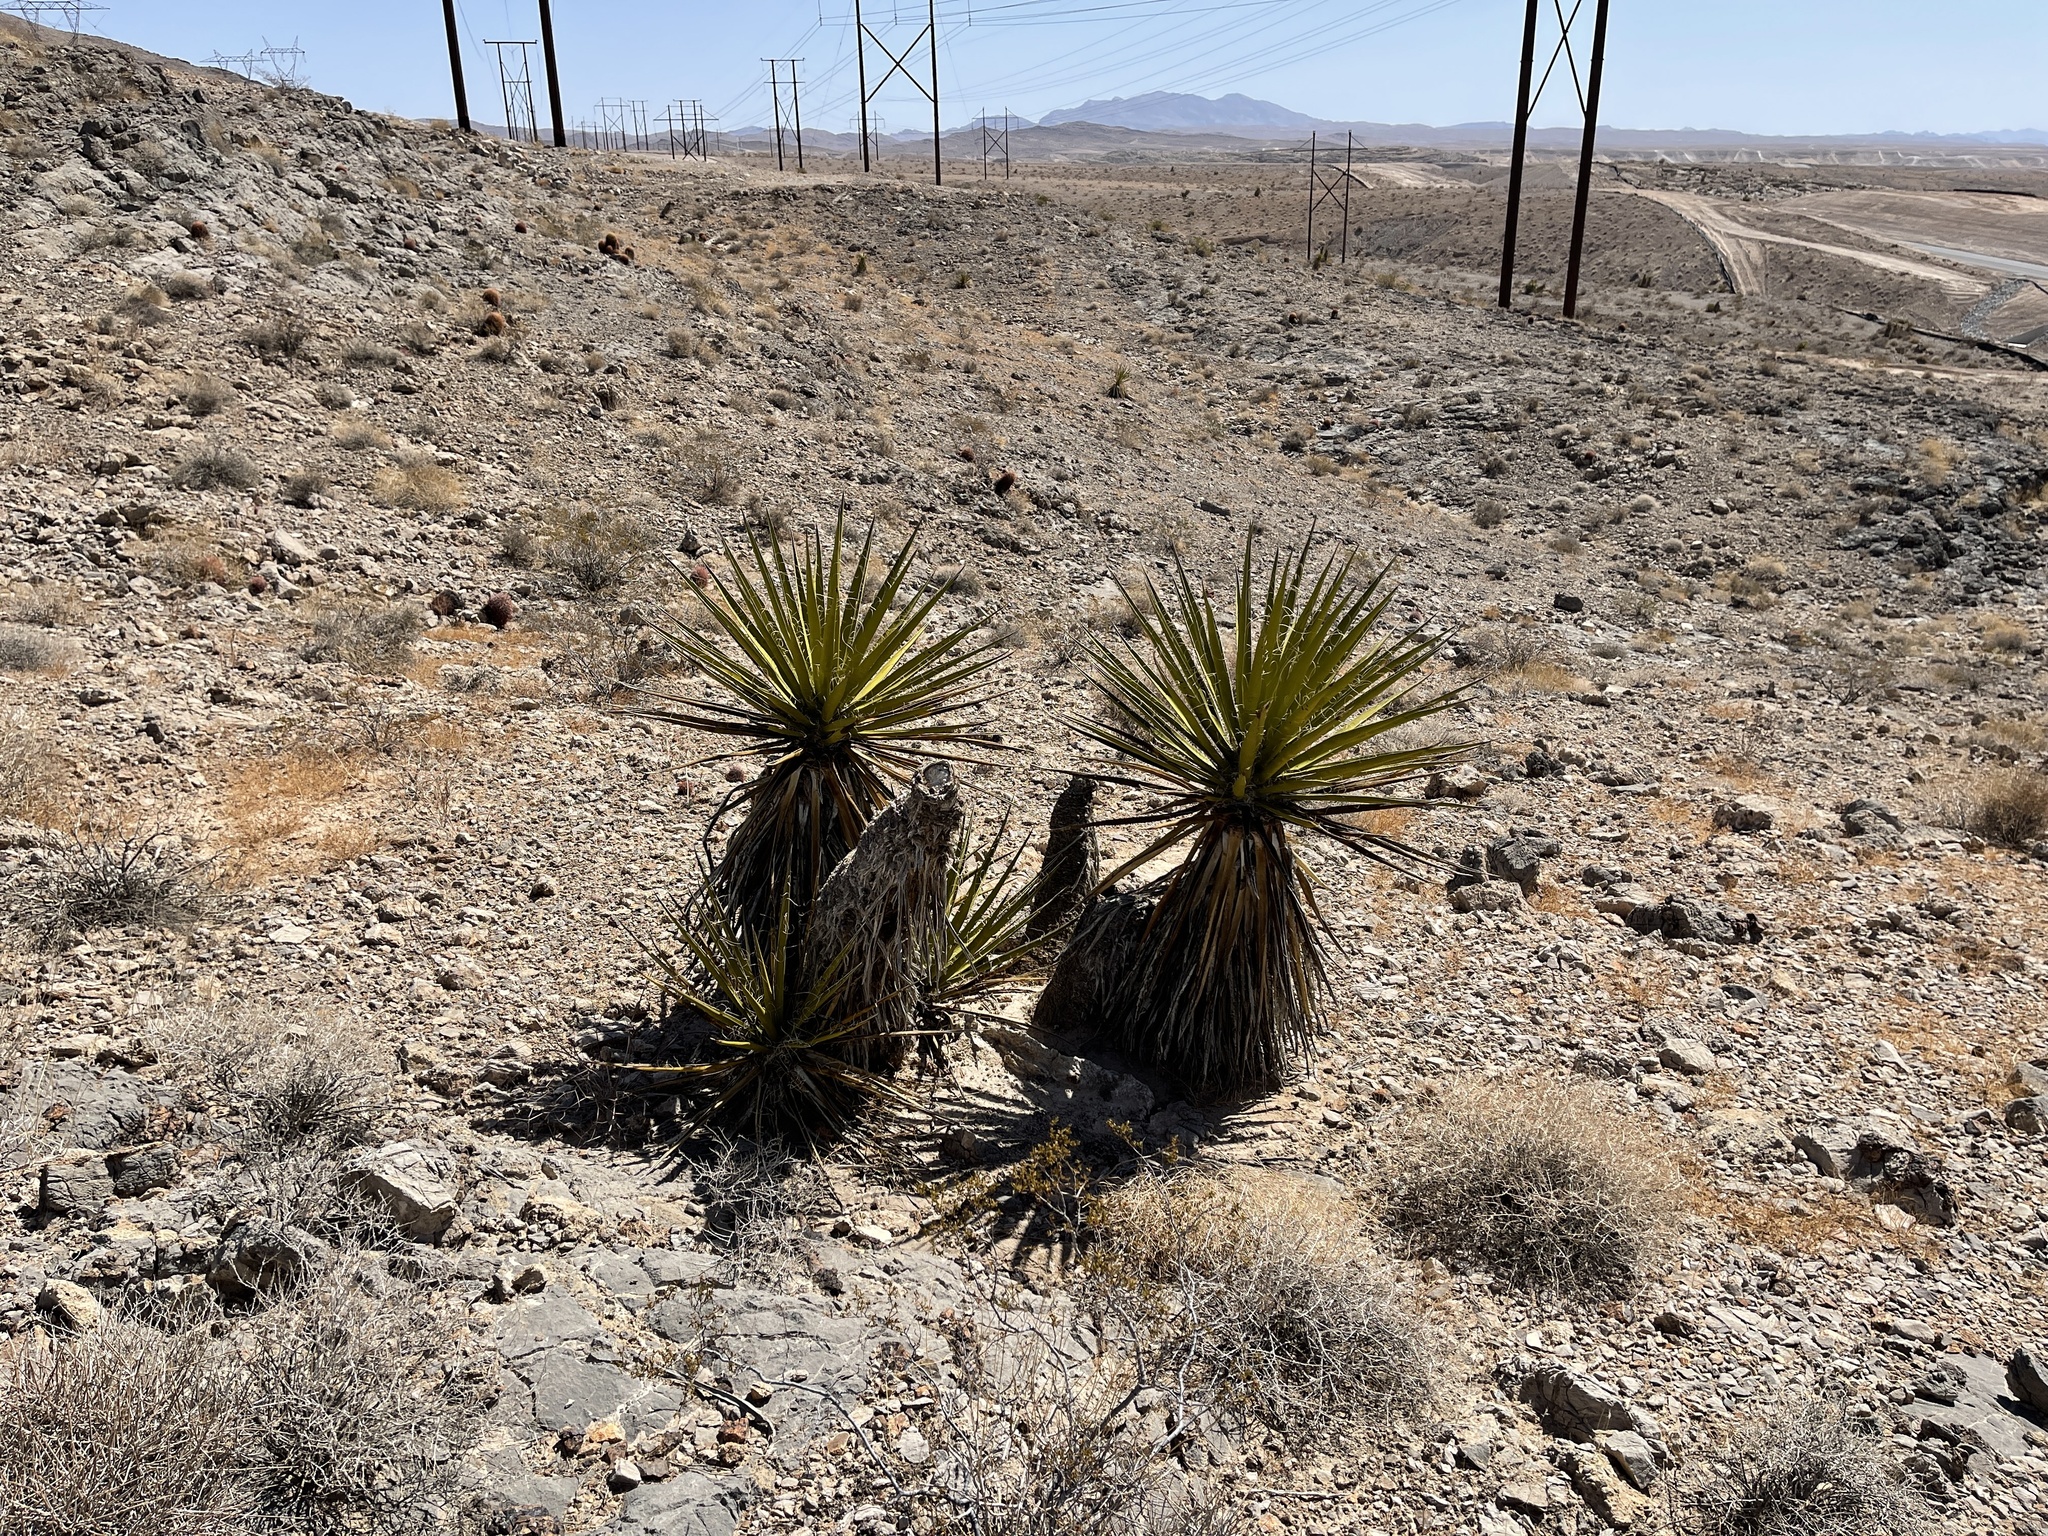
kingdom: Plantae
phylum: Tracheophyta
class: Liliopsida
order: Asparagales
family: Asparagaceae
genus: Yucca
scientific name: Yucca schidigera
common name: Mojave yucca
